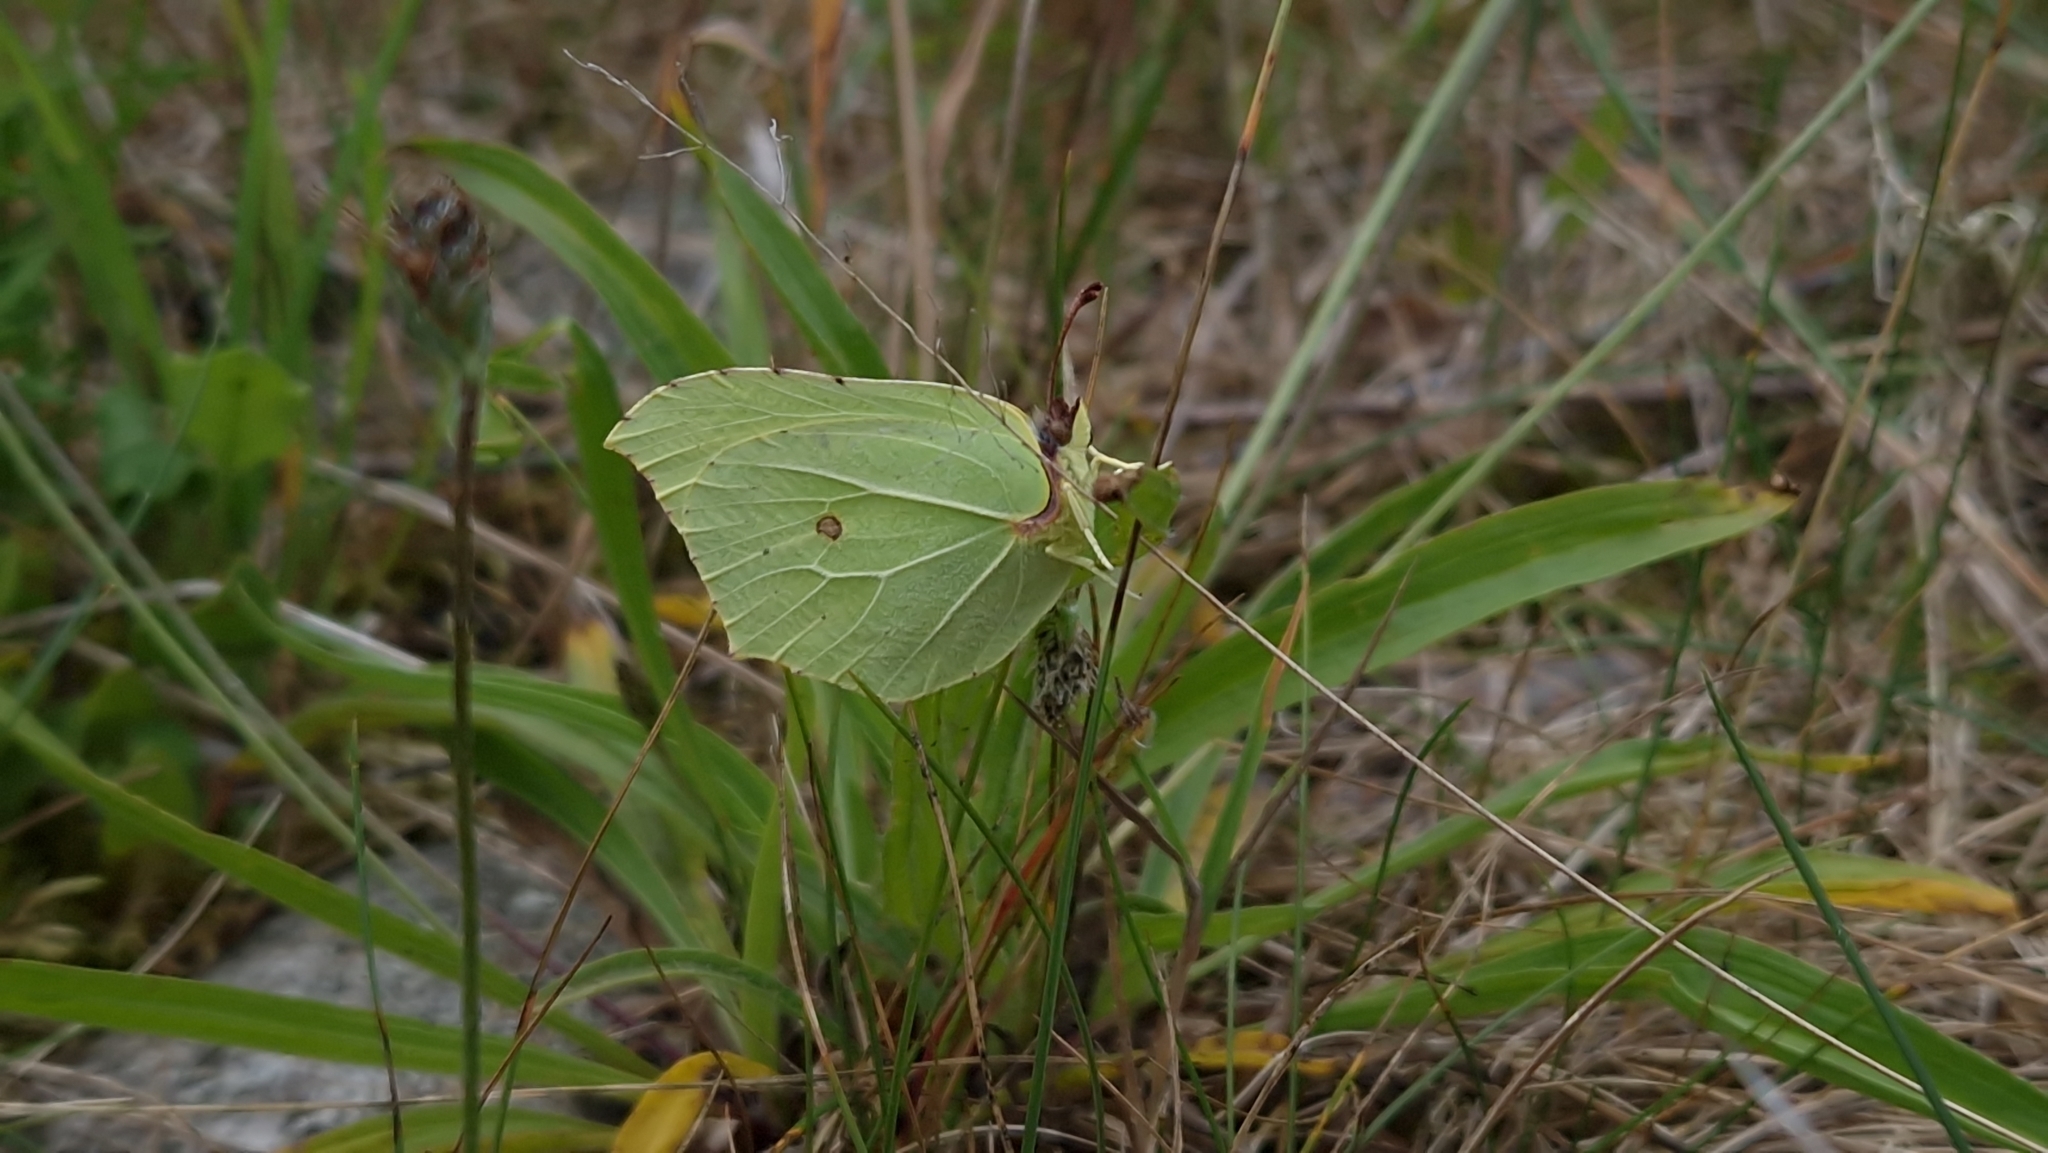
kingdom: Animalia
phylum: Arthropoda
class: Insecta
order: Lepidoptera
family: Pieridae
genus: Gonepteryx
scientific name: Gonepteryx rhamni
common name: Brimstone
